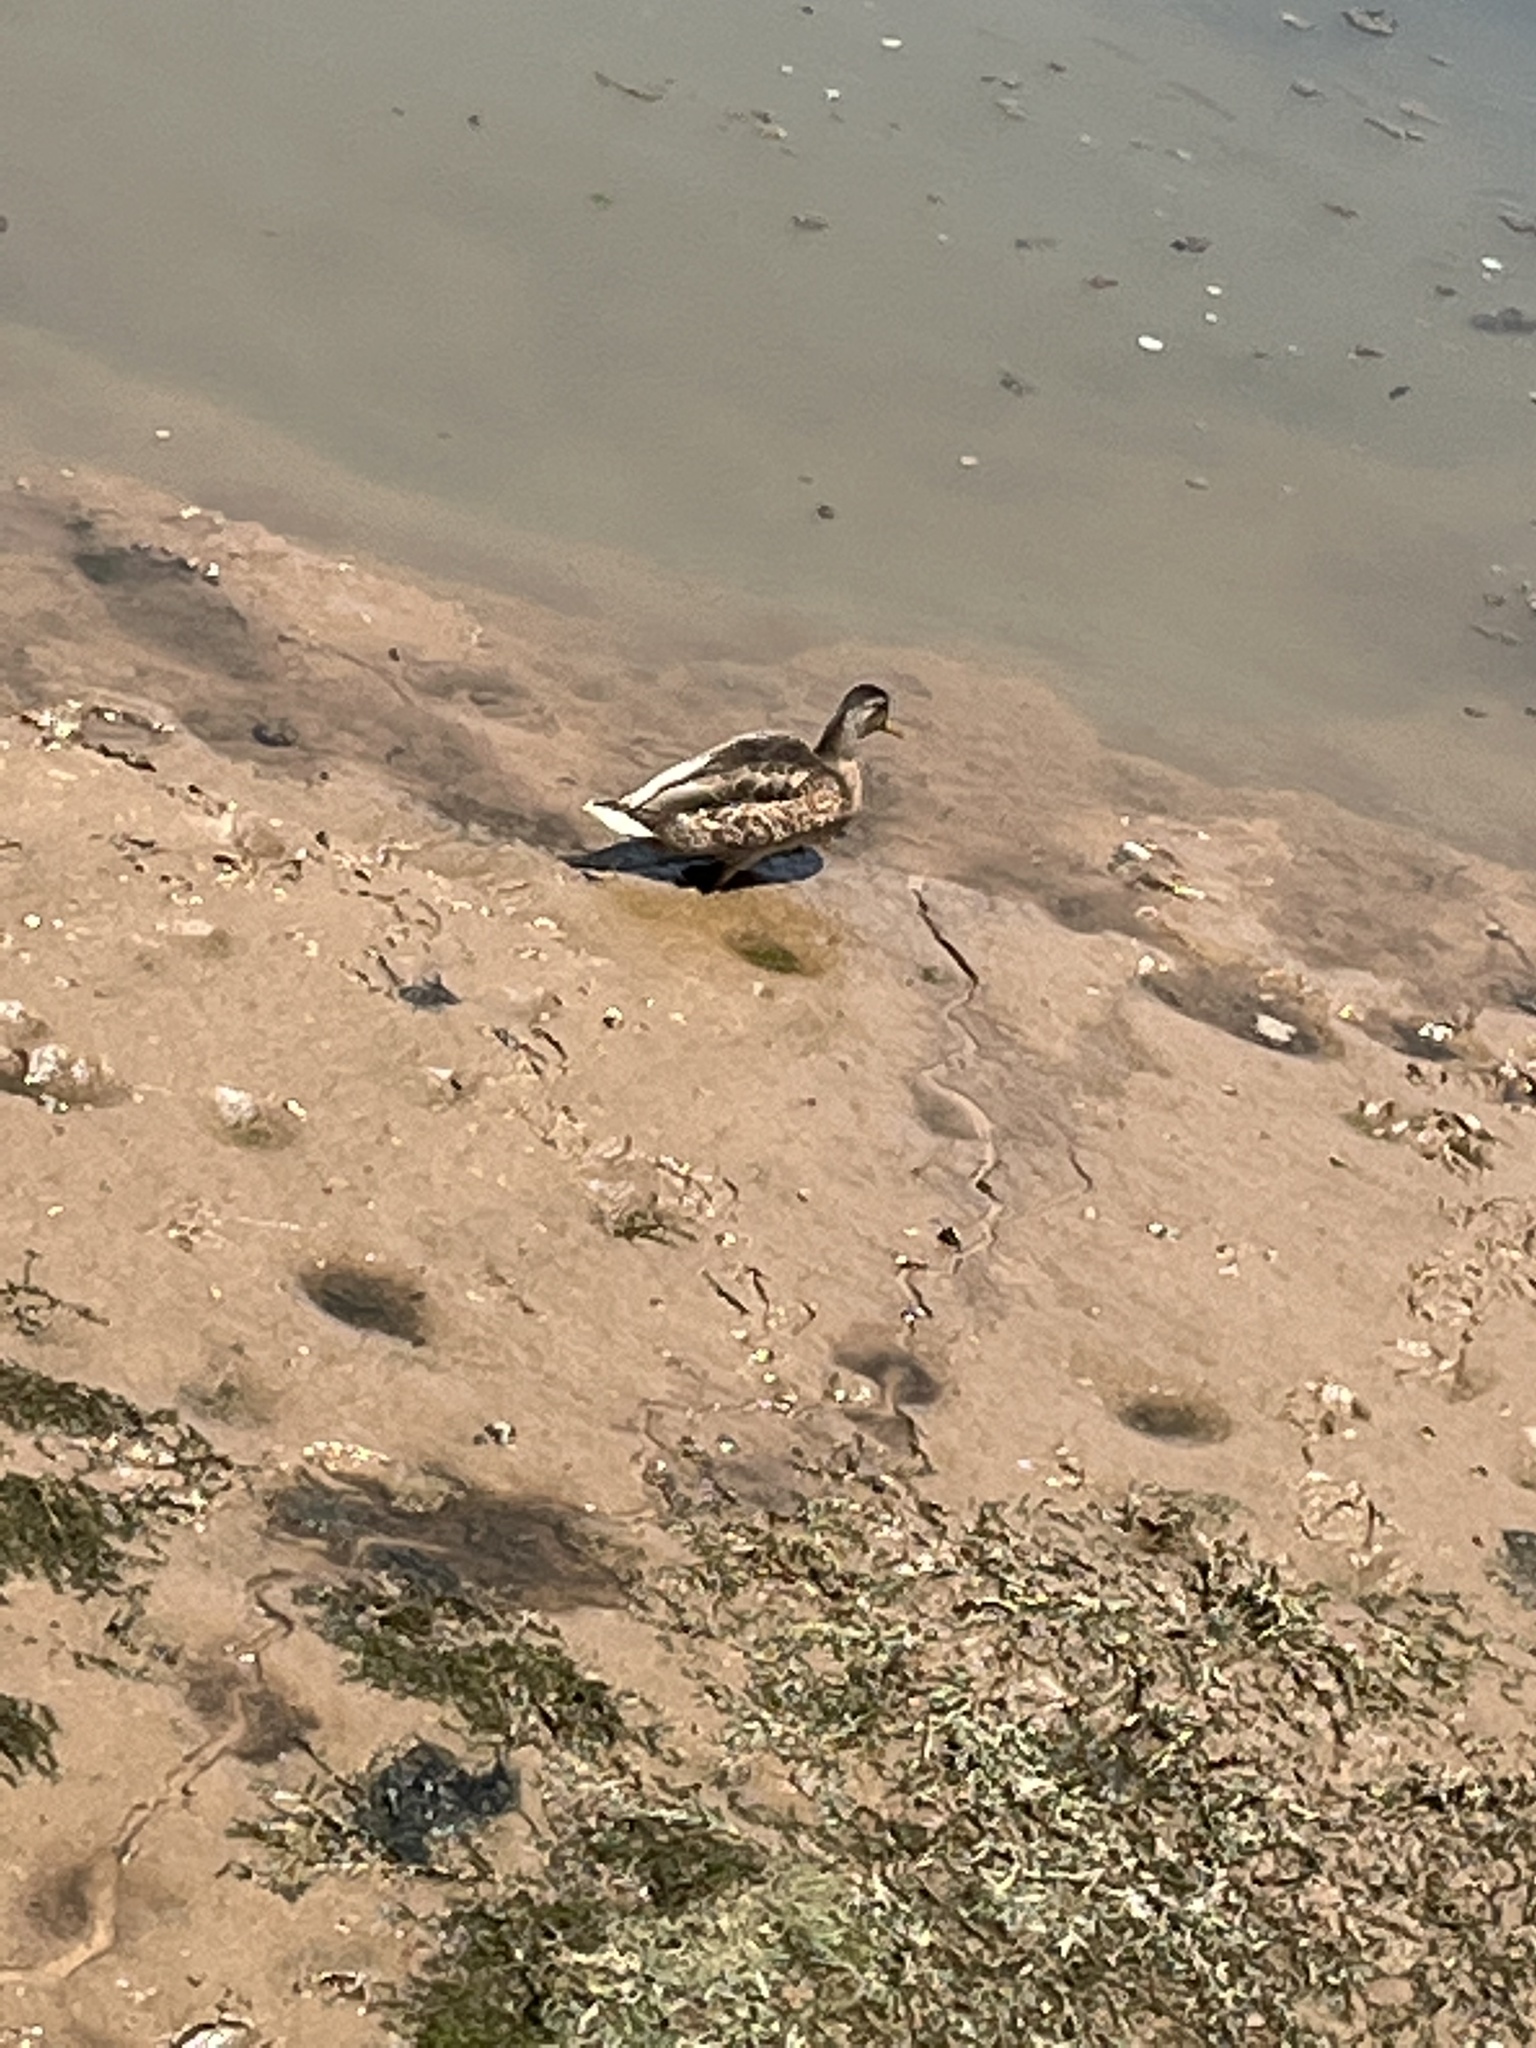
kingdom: Animalia
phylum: Chordata
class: Aves
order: Anseriformes
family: Anatidae
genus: Anas
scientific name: Anas platyrhynchos
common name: Mallard
